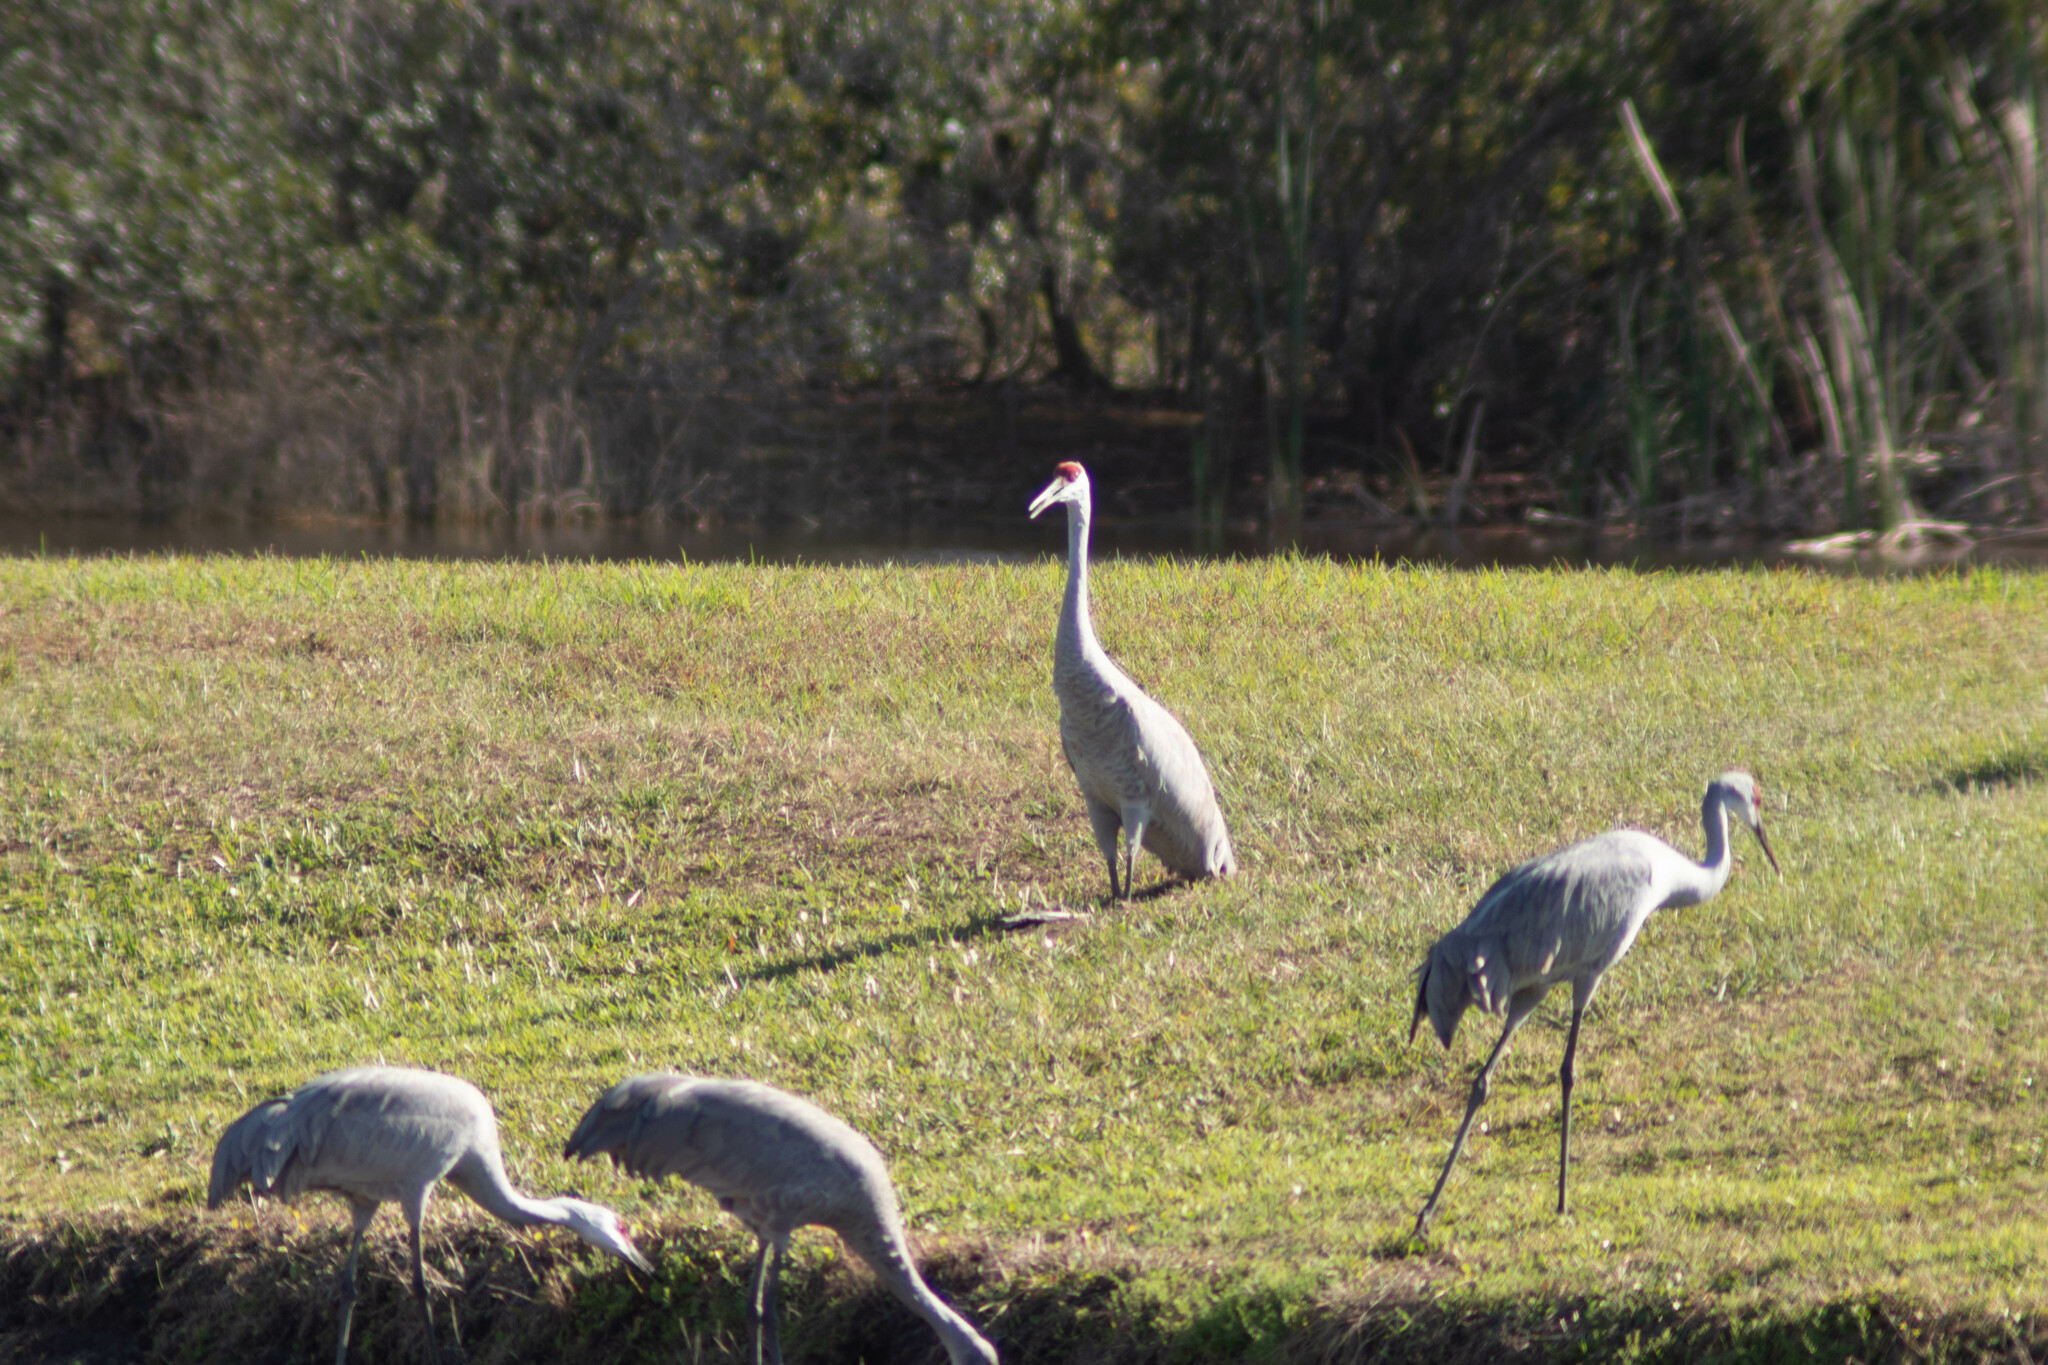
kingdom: Animalia
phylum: Chordata
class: Aves
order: Gruiformes
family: Gruidae
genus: Grus
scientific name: Grus canadensis
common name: Sandhill crane
